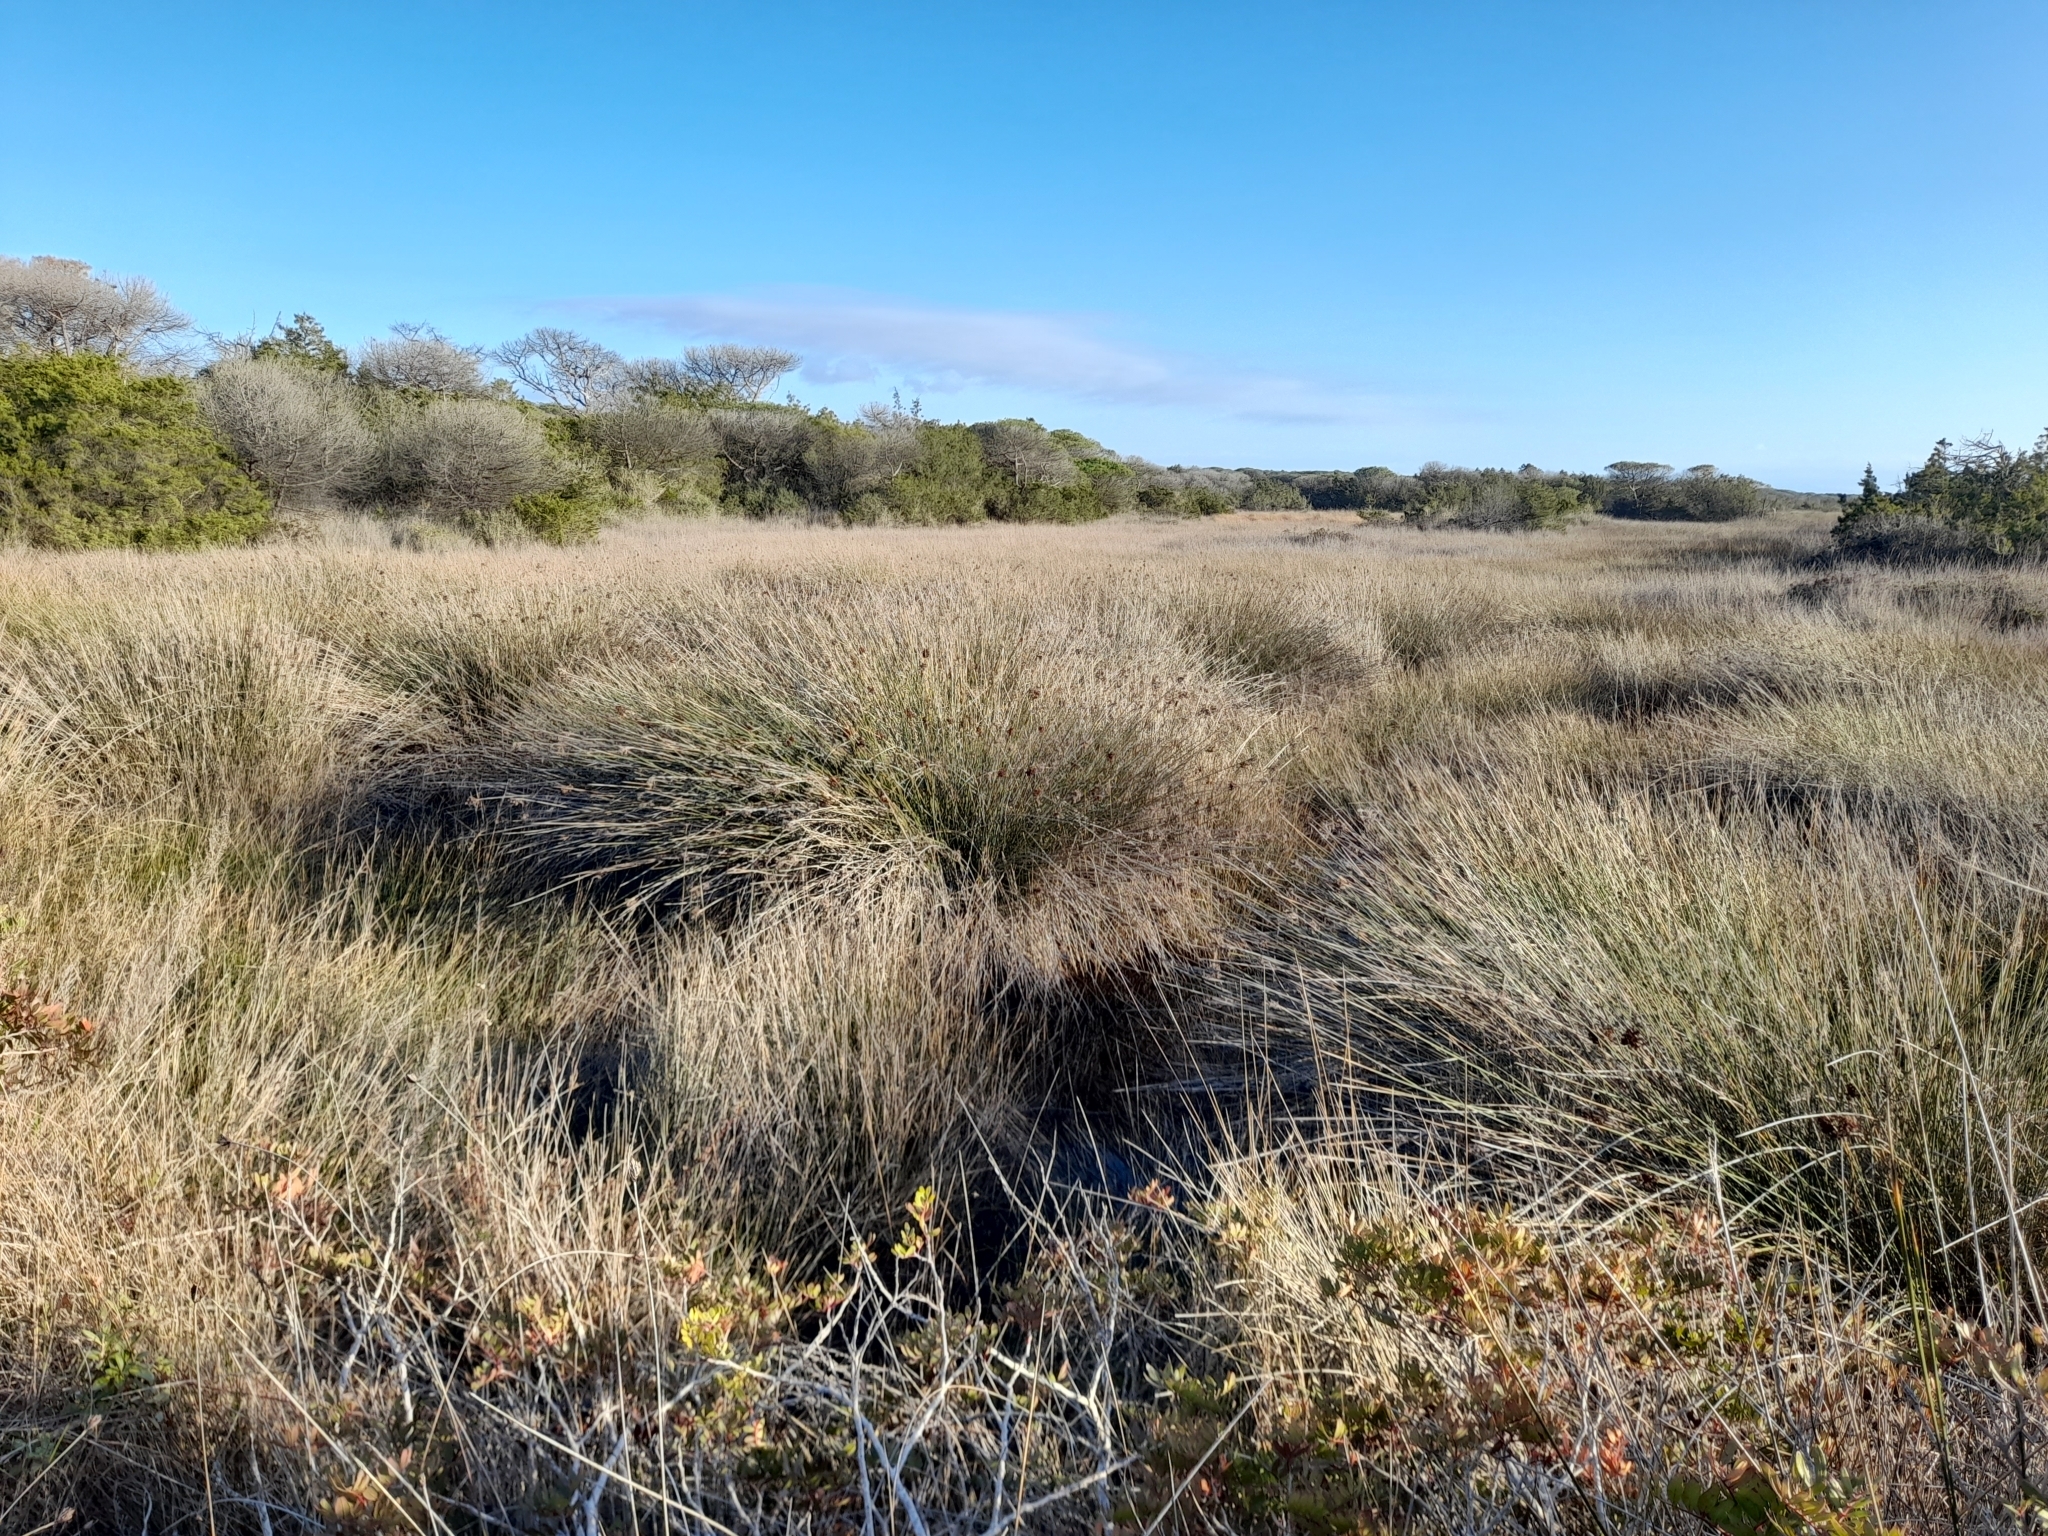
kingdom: Plantae
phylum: Tracheophyta
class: Liliopsida
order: Poales
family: Juncaceae
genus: Juncus
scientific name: Juncus acutus
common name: Sharp rush
